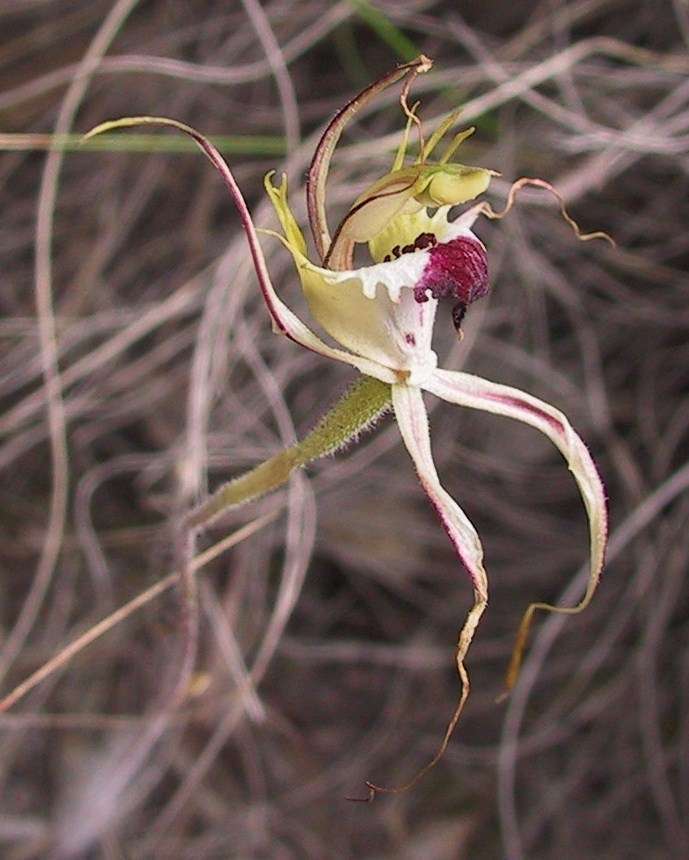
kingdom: Plantae
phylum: Tracheophyta
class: Liliopsida
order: Asparagales
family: Orchidaceae
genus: Caladenia
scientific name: Caladenia tentaculata
